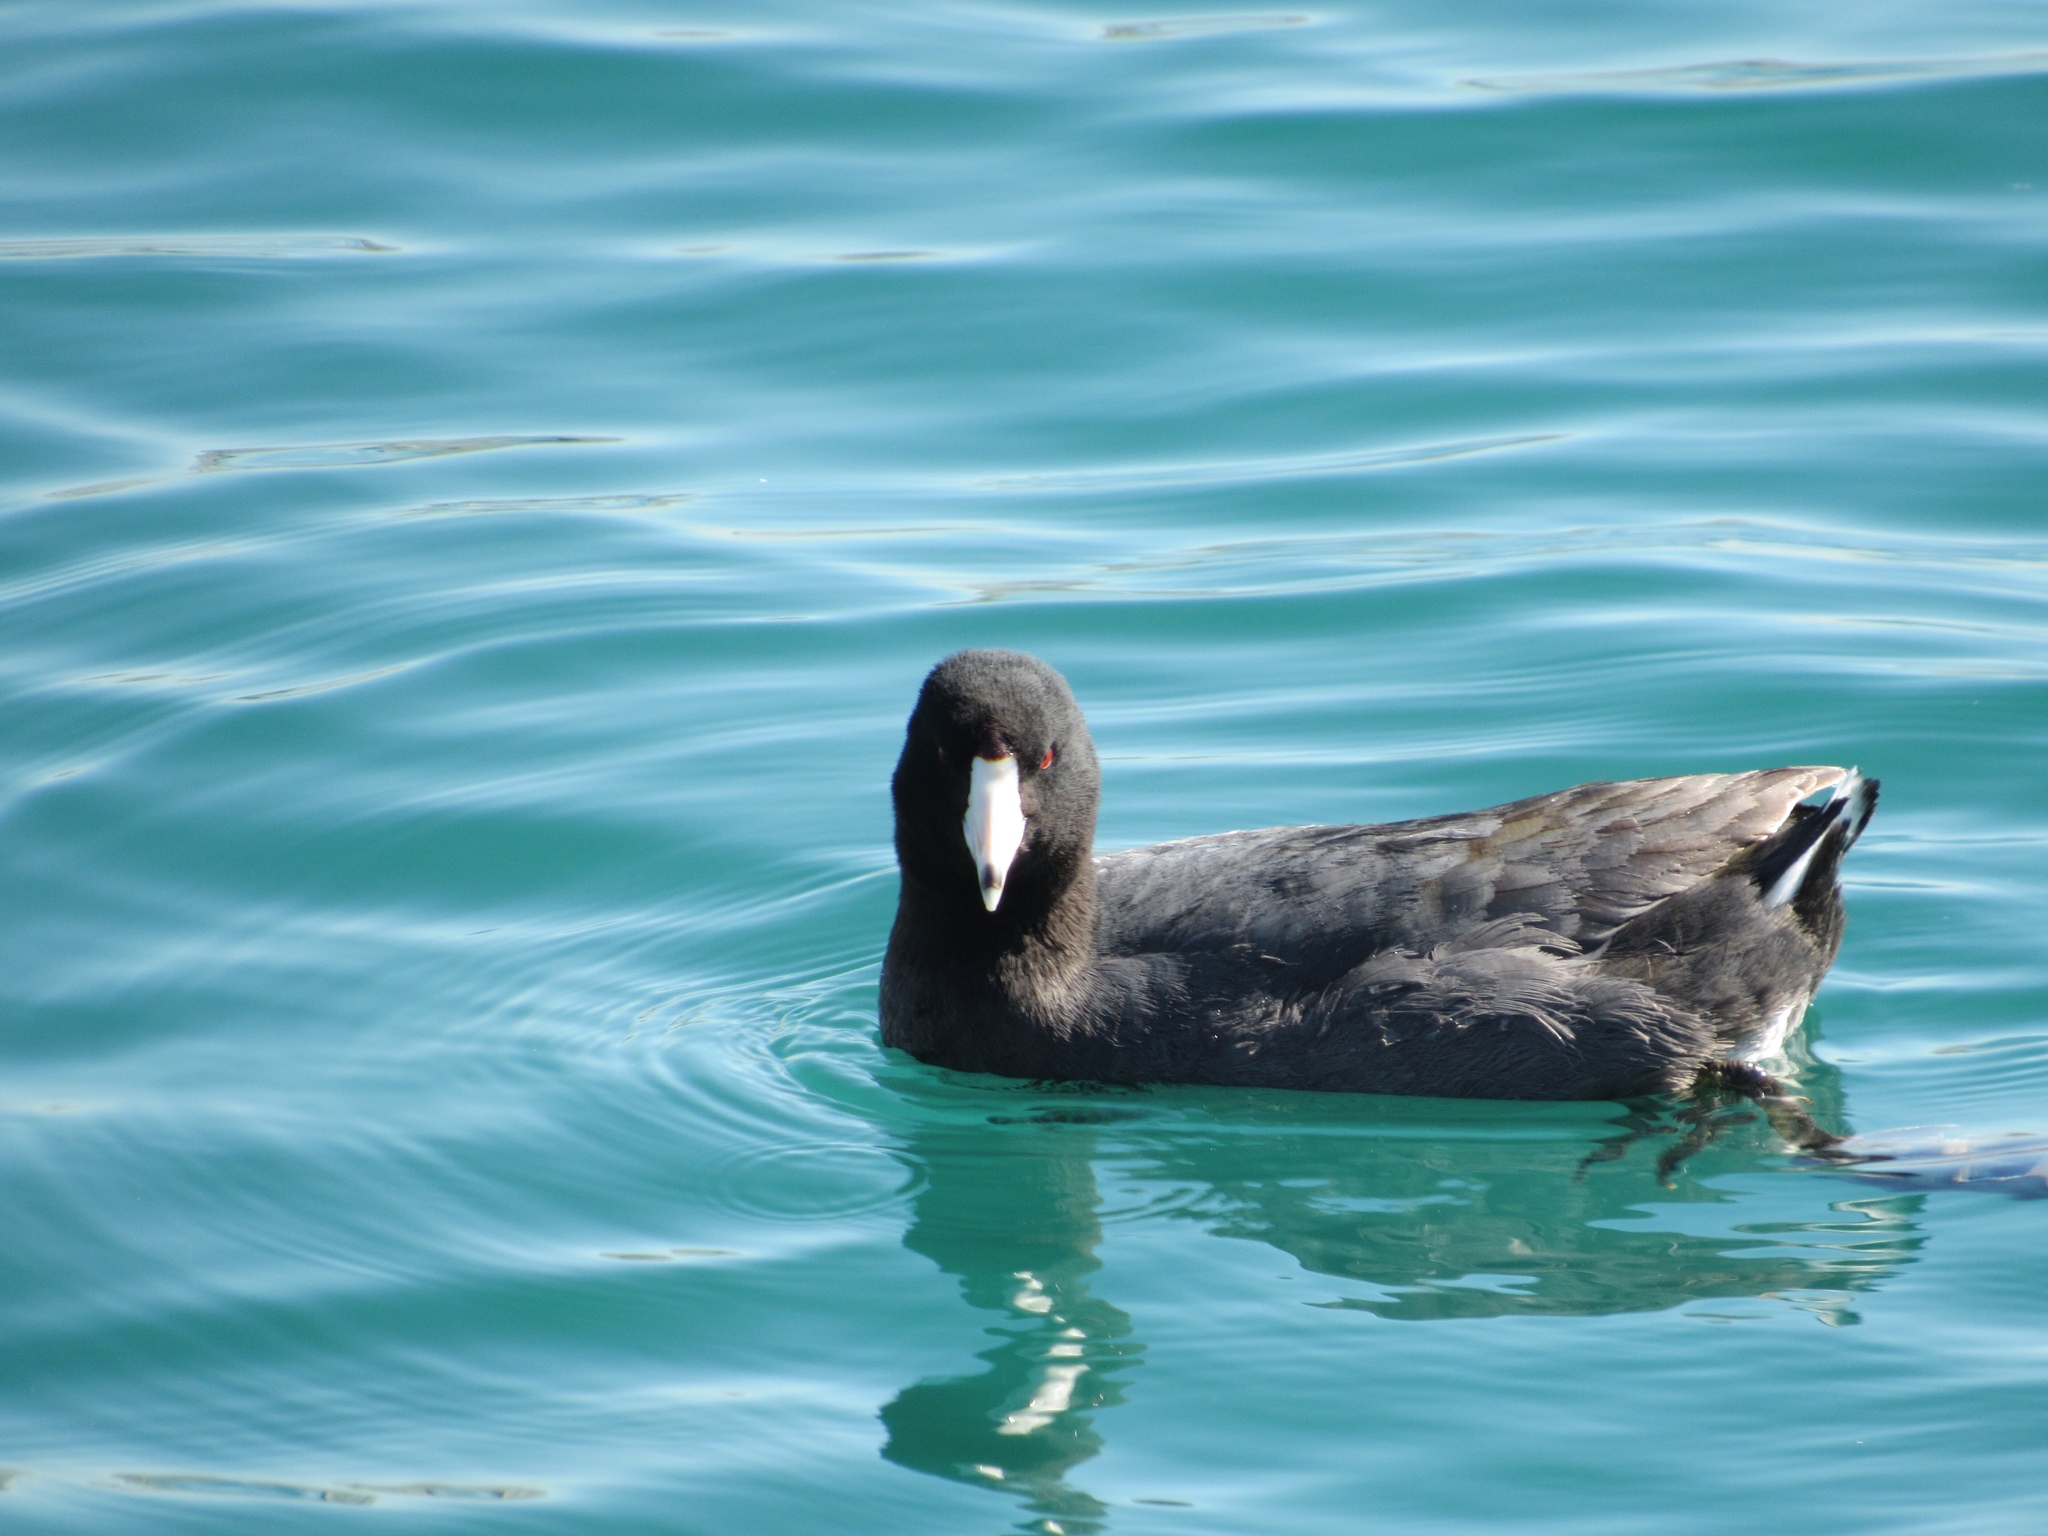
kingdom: Animalia
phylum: Chordata
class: Aves
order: Gruiformes
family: Rallidae
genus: Fulica
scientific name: Fulica americana
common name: American coot
